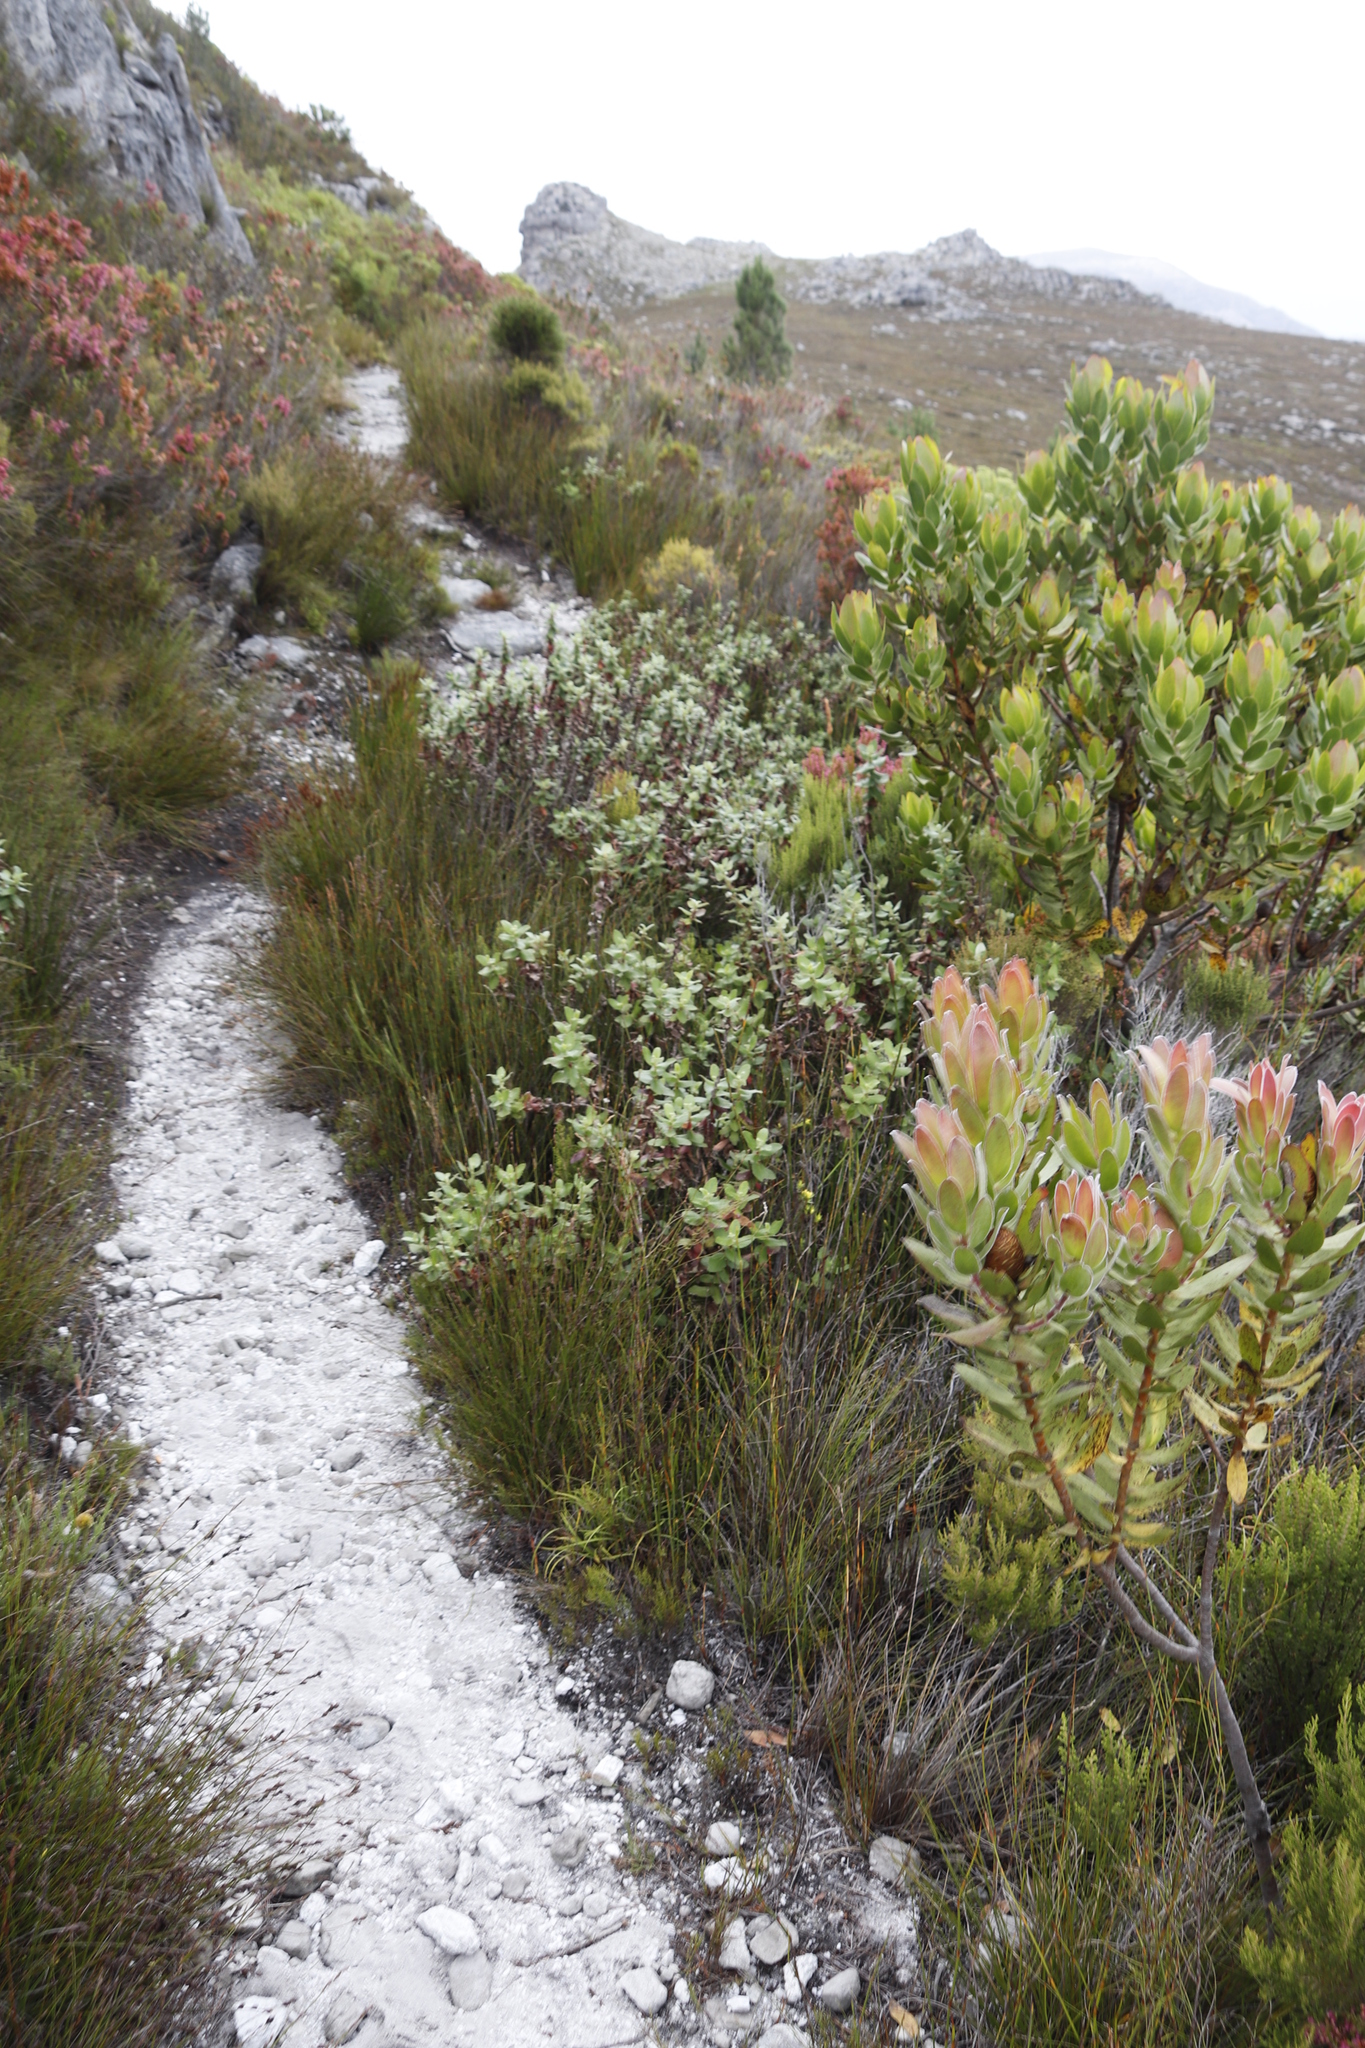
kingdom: Plantae
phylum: Tracheophyta
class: Magnoliopsida
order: Rosales
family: Rosaceae
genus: Cliffortia
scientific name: Cliffortia hirsuta
